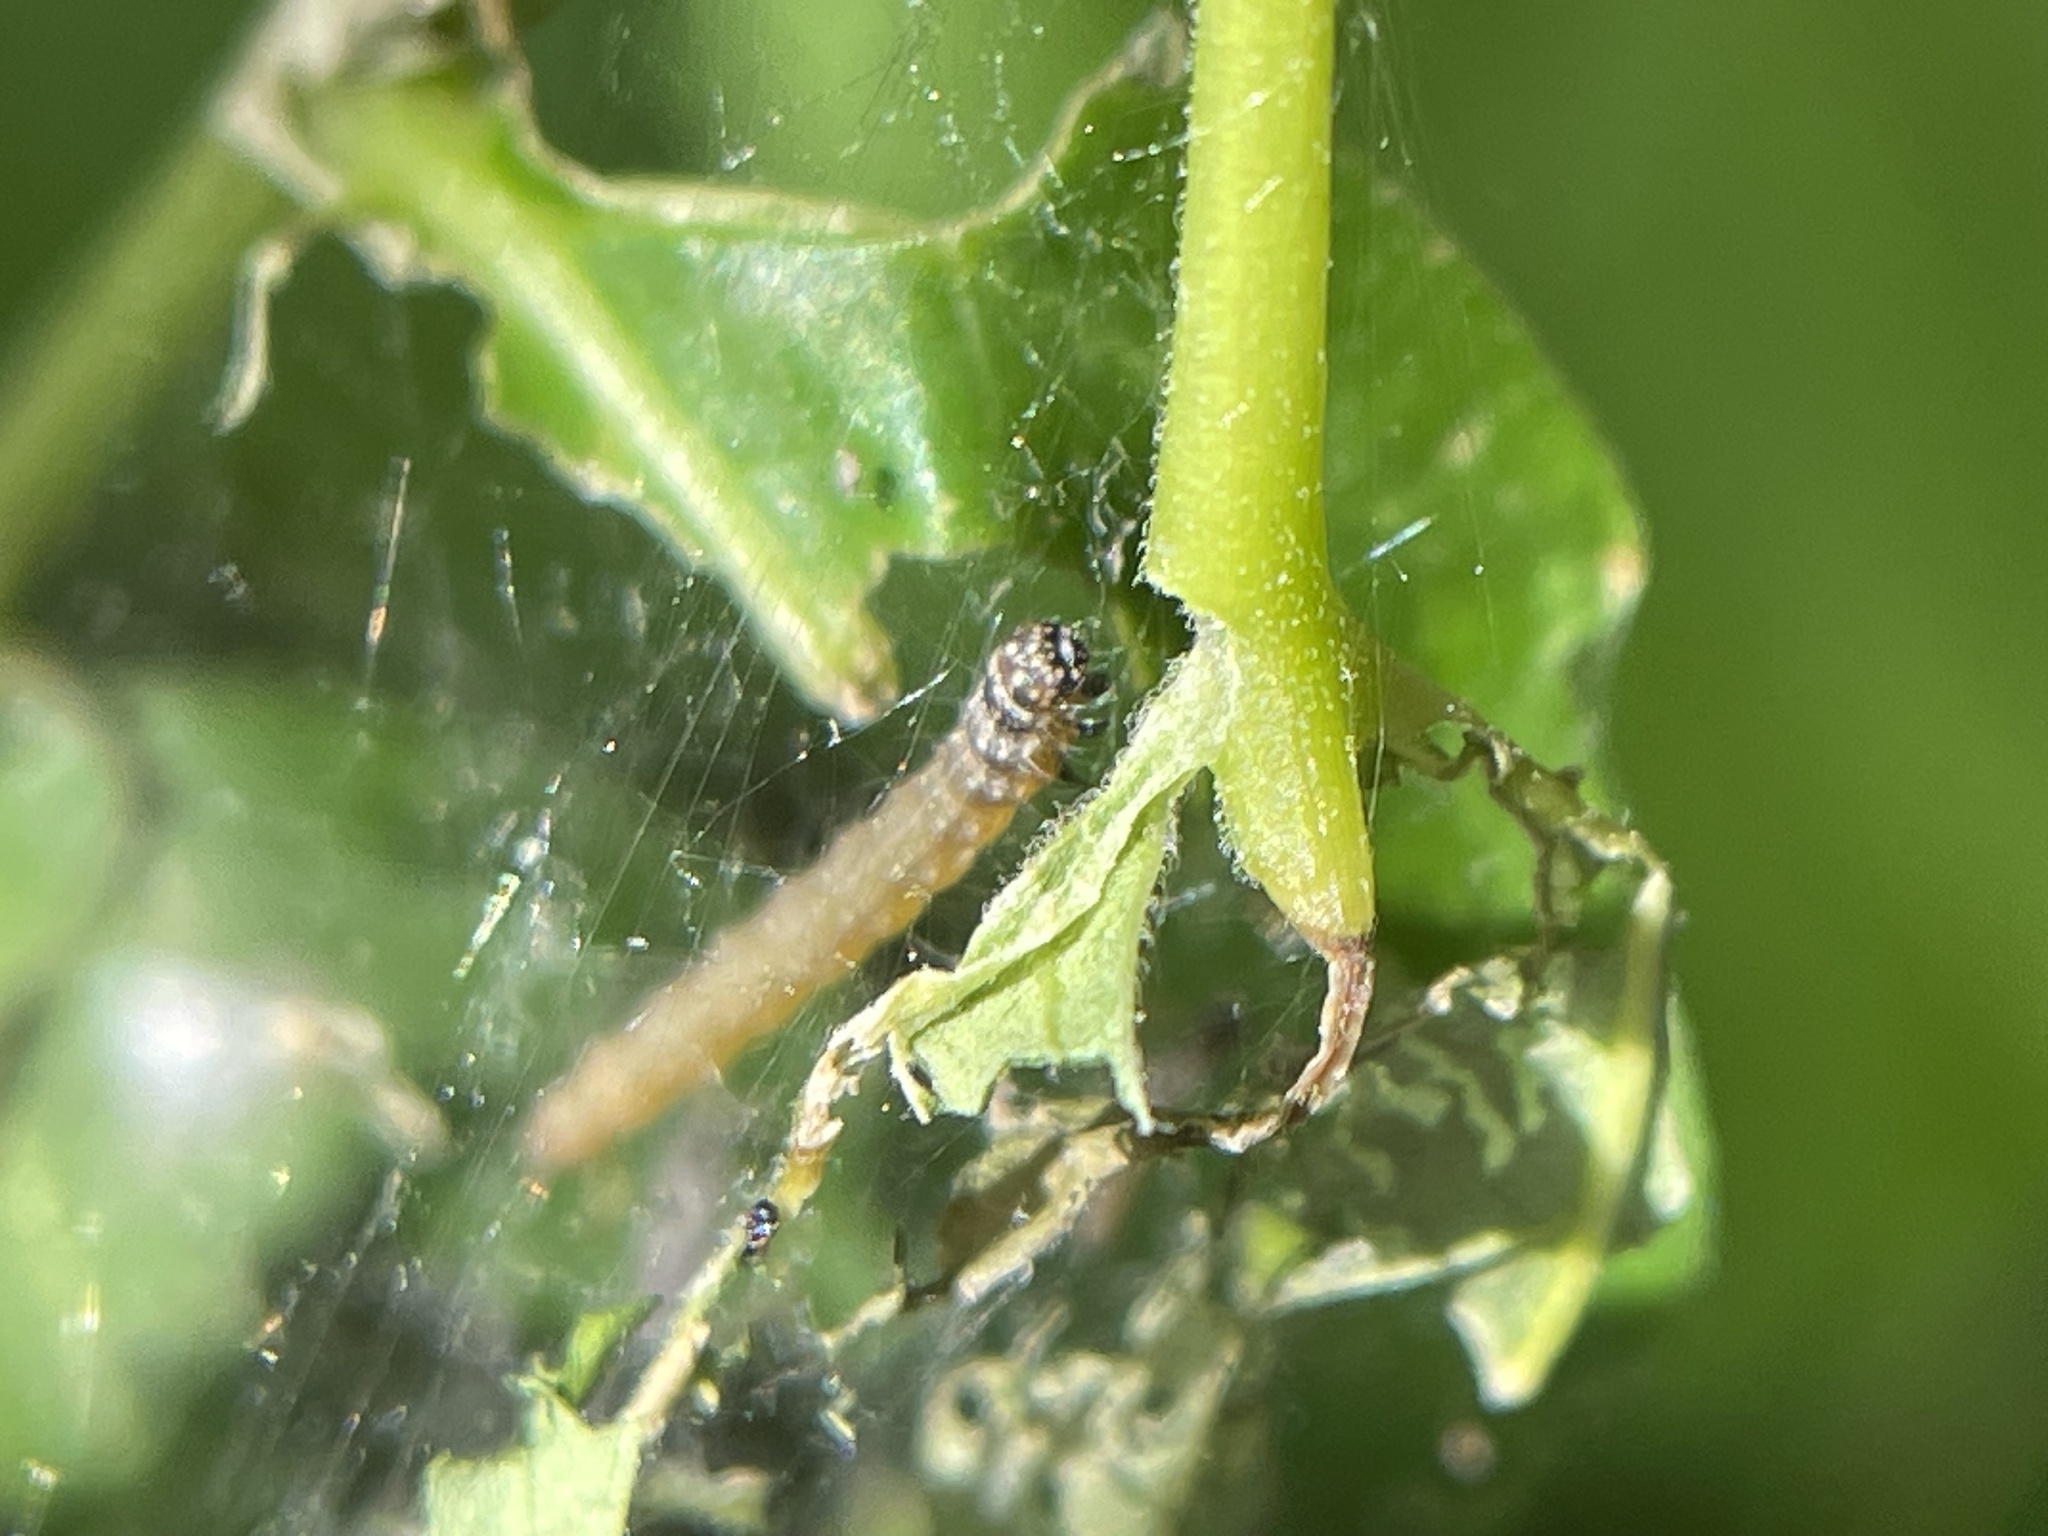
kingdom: Animalia
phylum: Arthropoda
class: Insecta
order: Lepidoptera
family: Attevidae
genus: Atteva
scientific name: Atteva punctella
